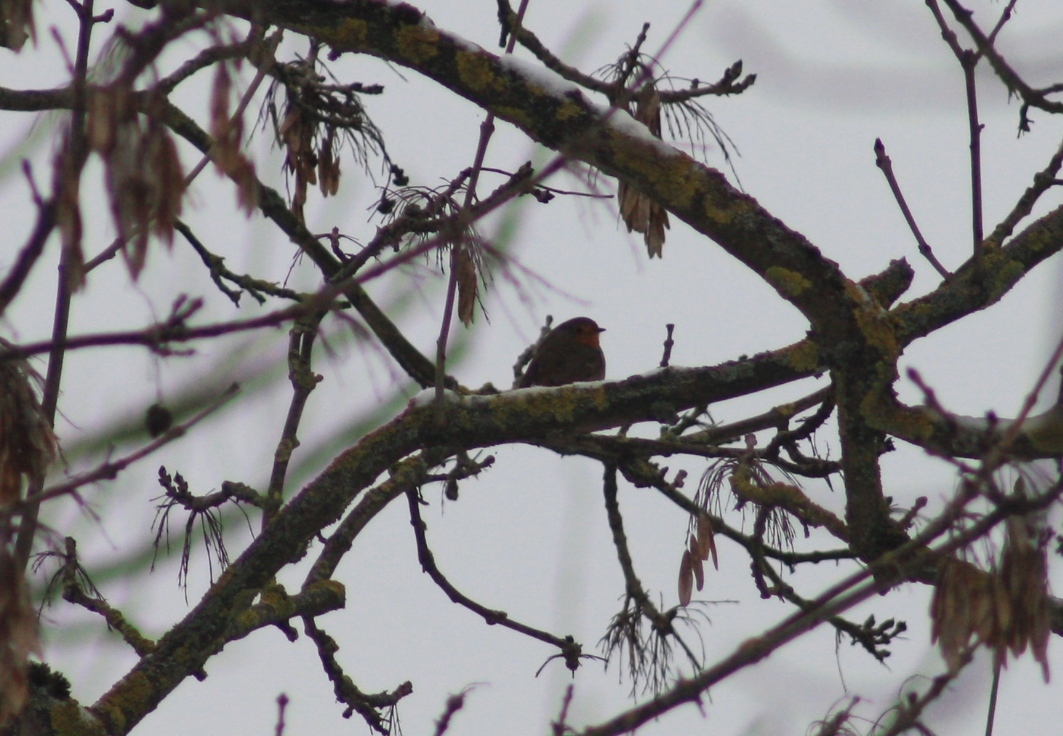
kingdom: Animalia
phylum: Chordata
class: Aves
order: Passeriformes
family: Muscicapidae
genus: Erithacus
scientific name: Erithacus rubecula
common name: European robin
